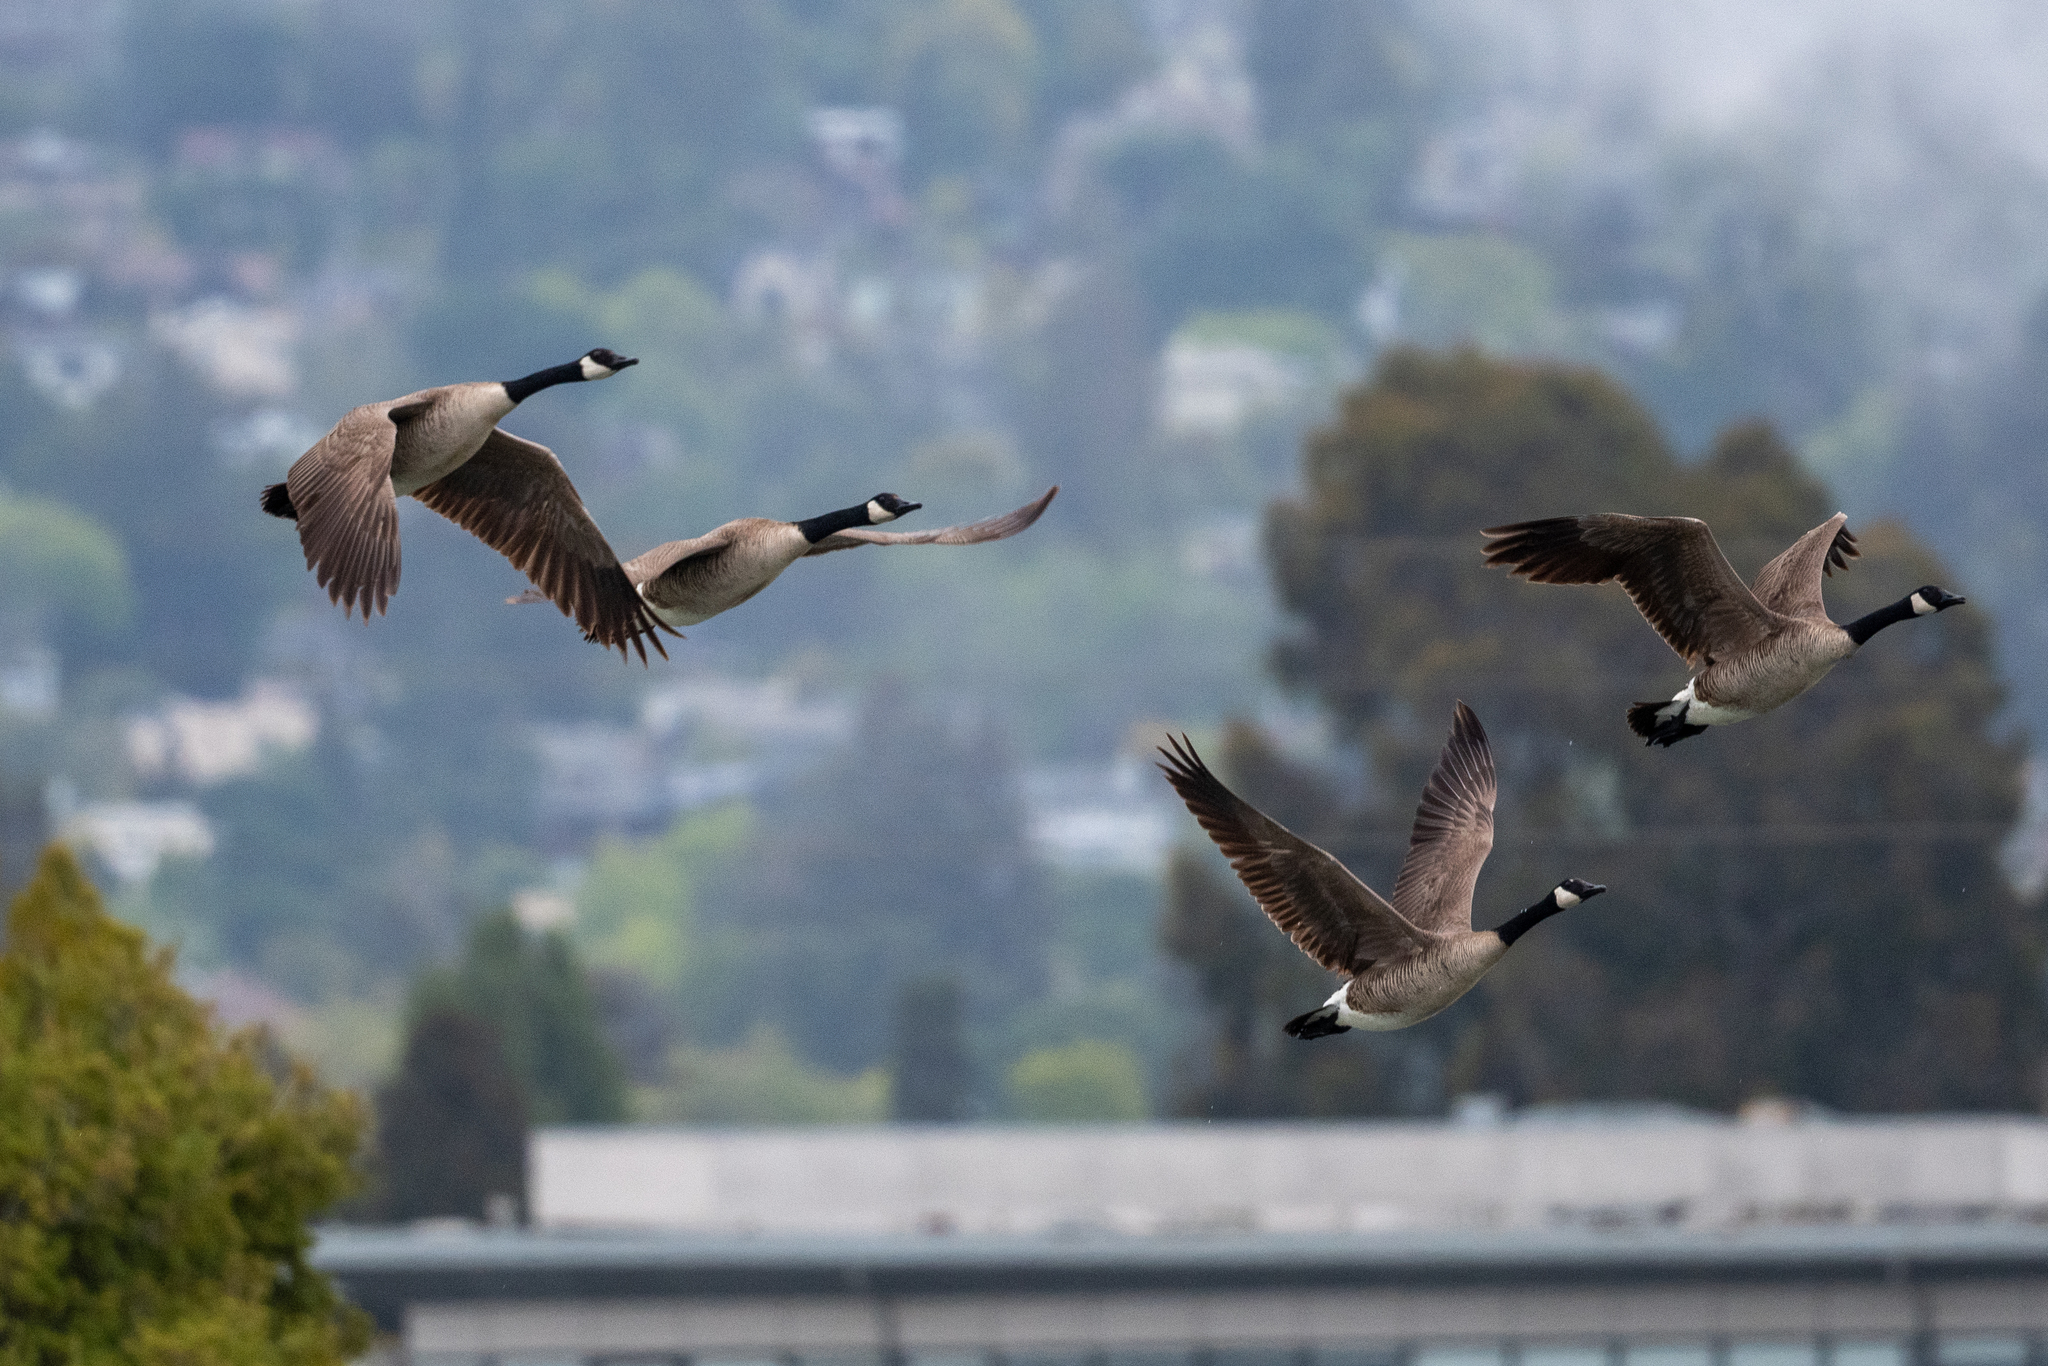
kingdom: Animalia
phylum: Chordata
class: Aves
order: Anseriformes
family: Anatidae
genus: Branta
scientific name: Branta canadensis
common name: Canada goose
